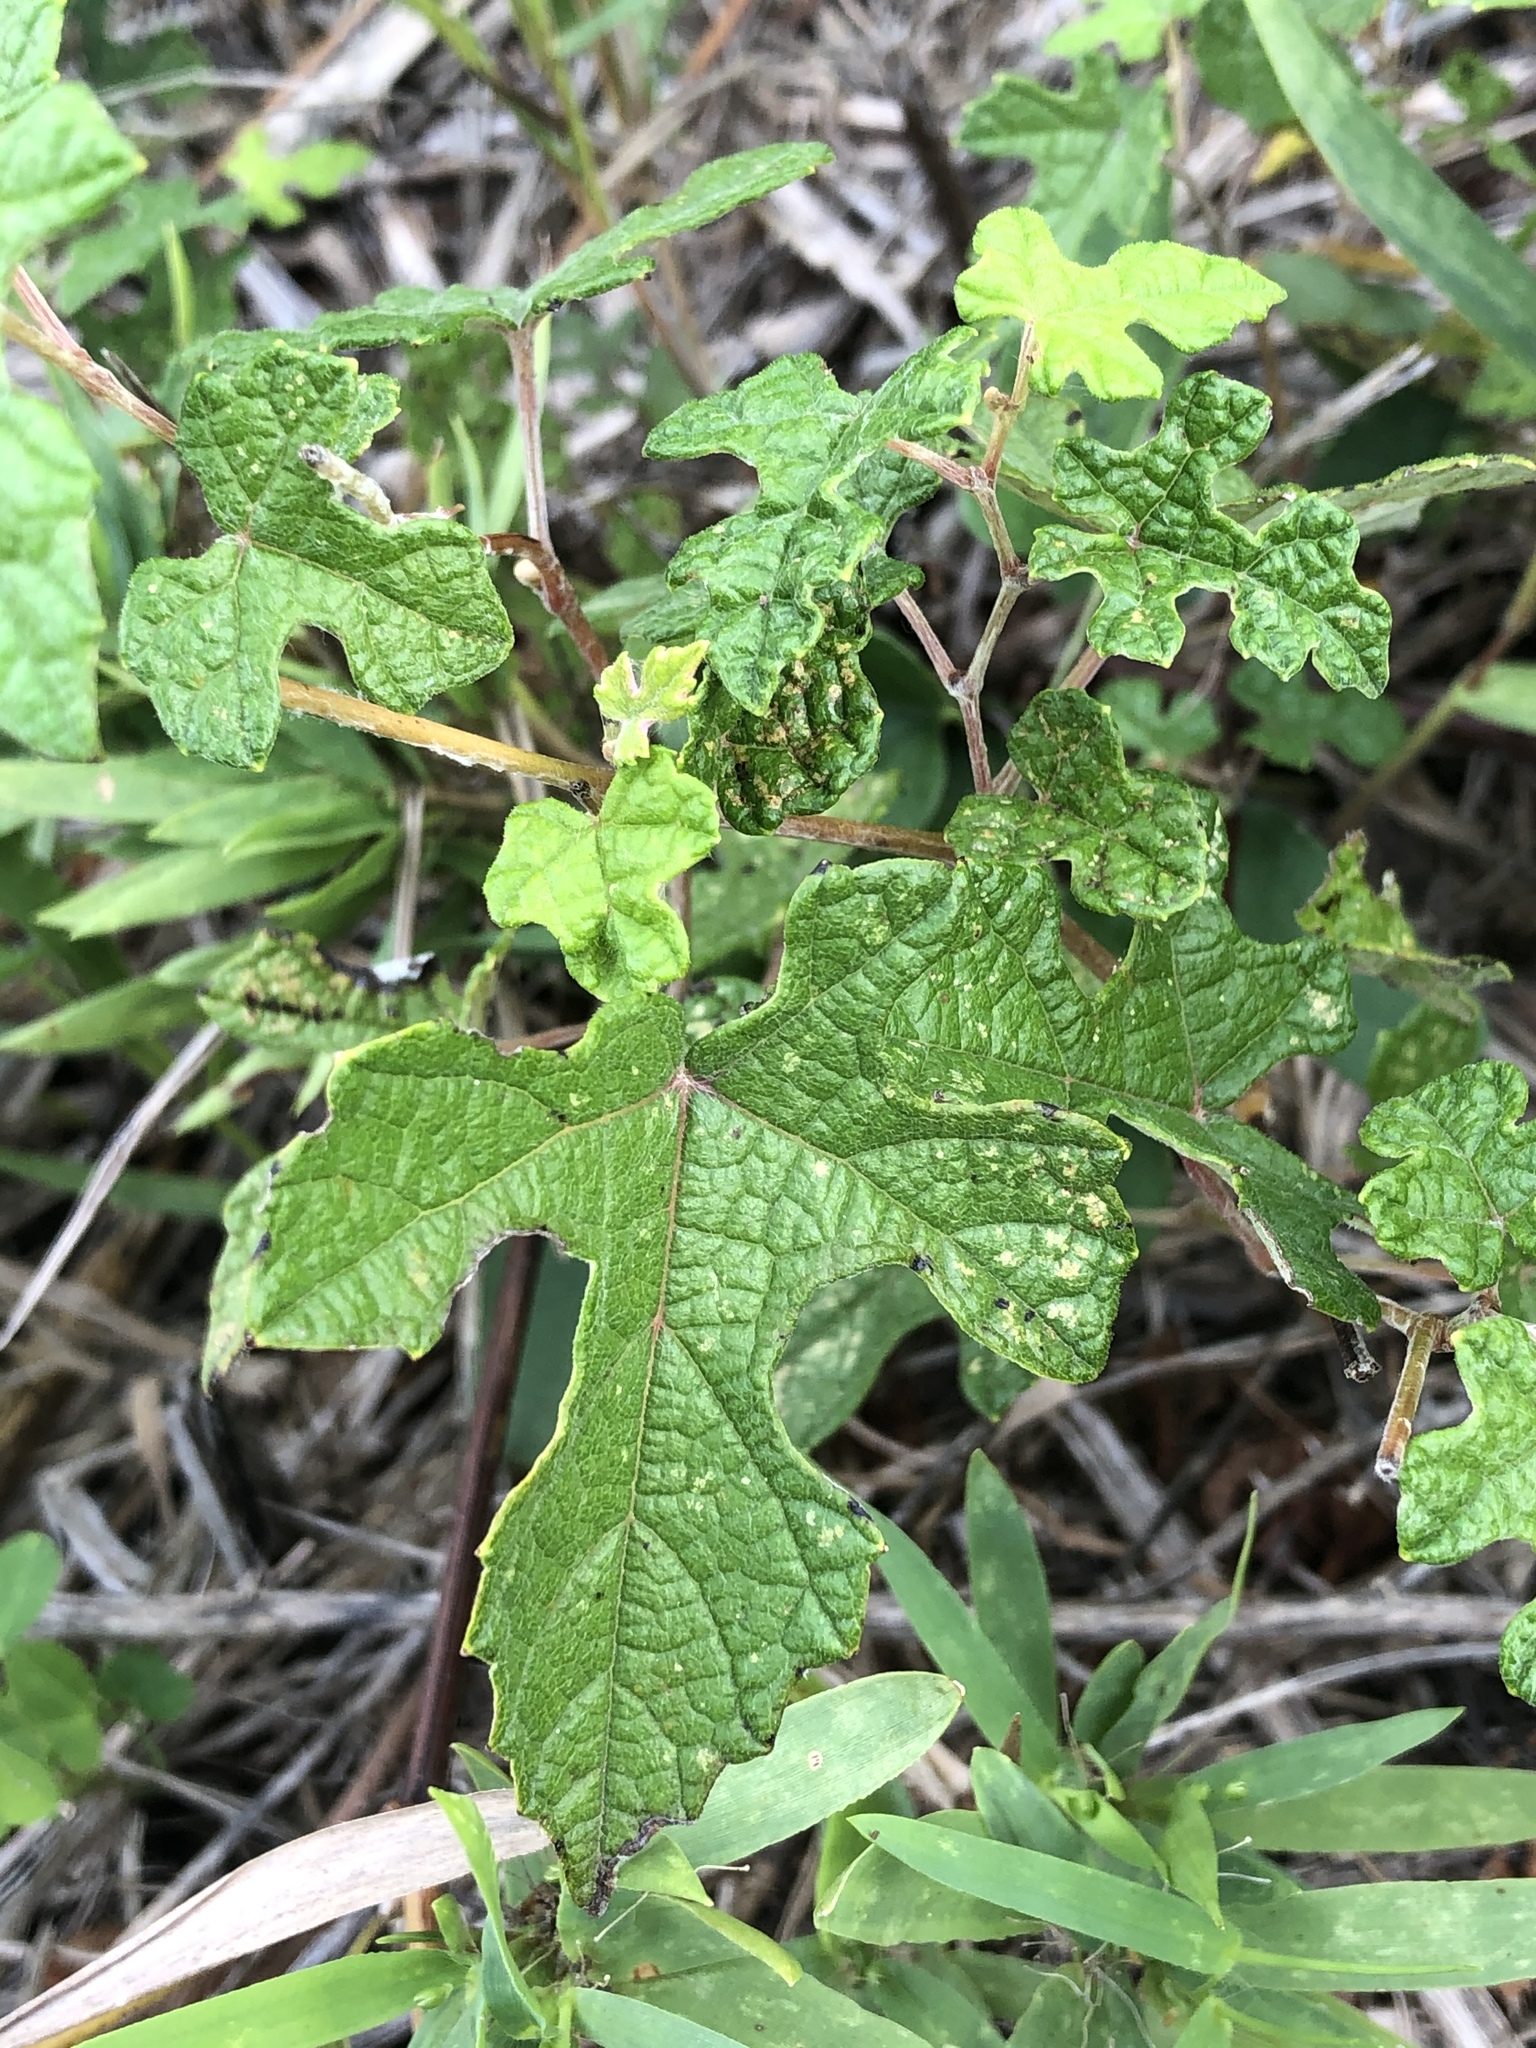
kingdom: Plantae
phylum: Tracheophyta
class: Magnoliopsida
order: Vitales
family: Vitaceae
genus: Vitis
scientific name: Vitis mustangensis
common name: Mustang grape
